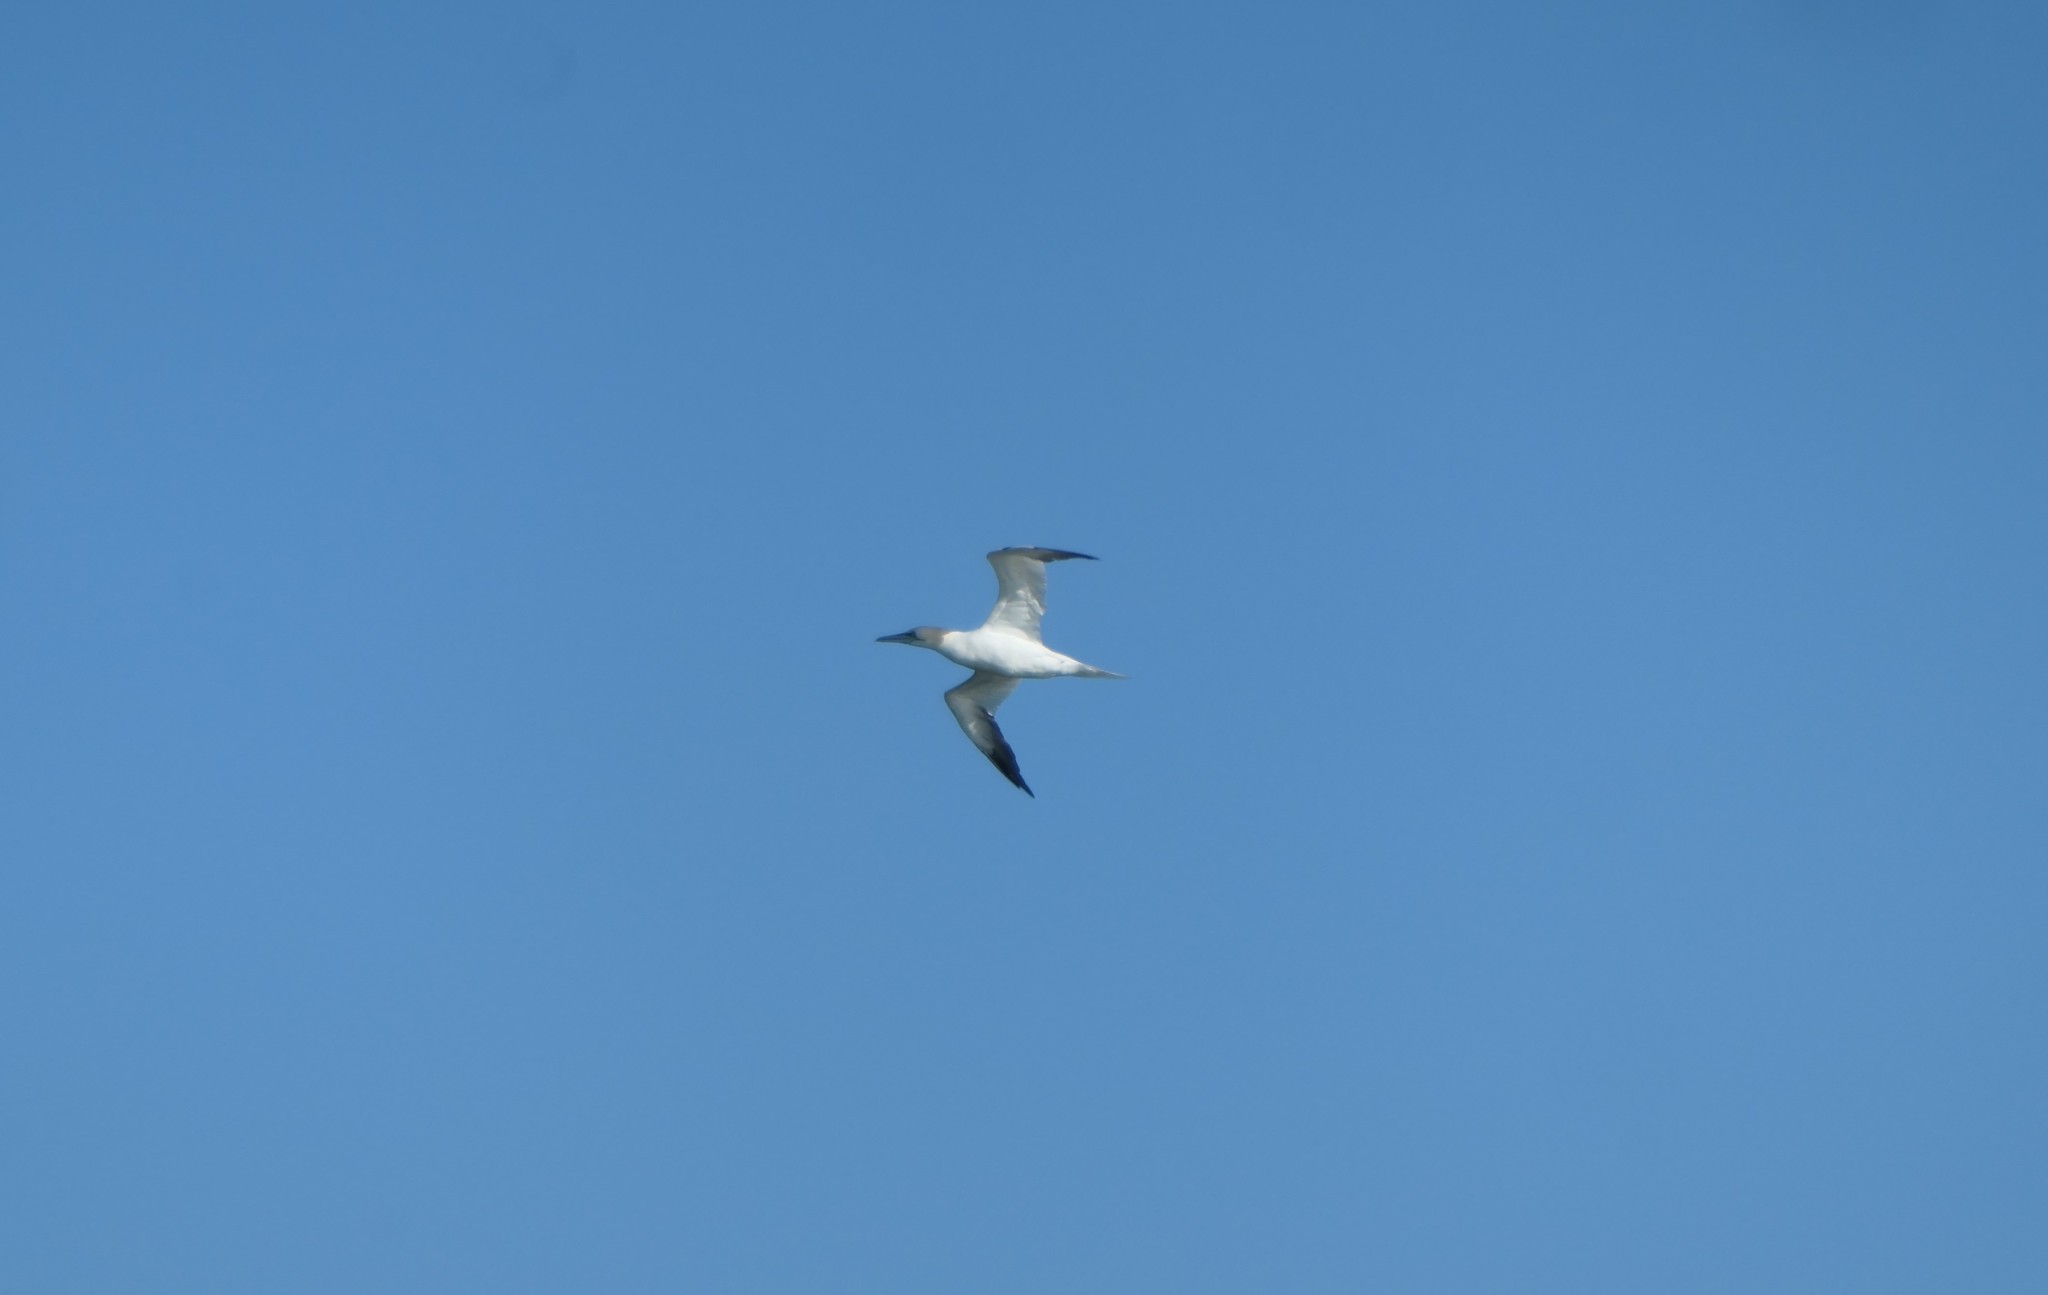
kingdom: Animalia
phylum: Chordata
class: Aves
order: Suliformes
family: Sulidae
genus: Morus
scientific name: Morus bassanus
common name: Northern gannet
